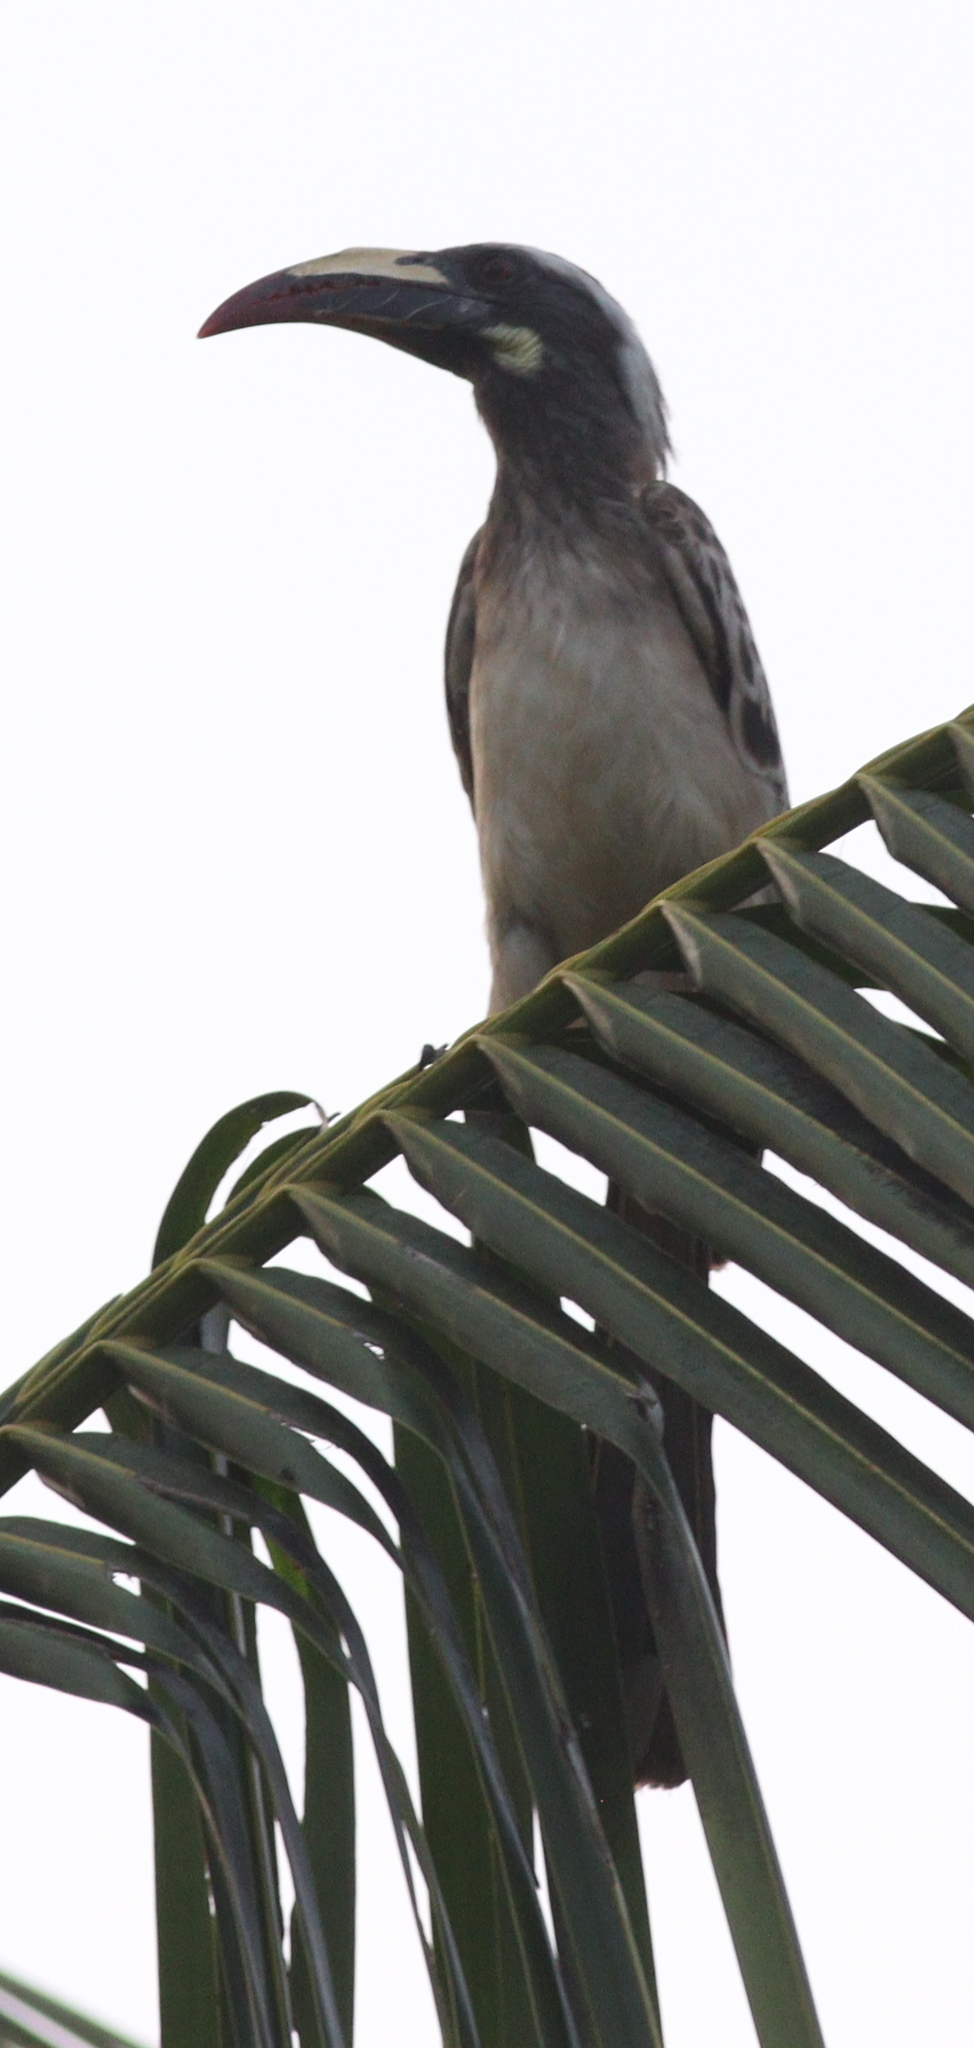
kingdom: Animalia
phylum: Chordata
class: Aves
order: Bucerotiformes
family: Bucerotidae
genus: Lophoceros
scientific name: Lophoceros nasutus
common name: African grey hornbill
